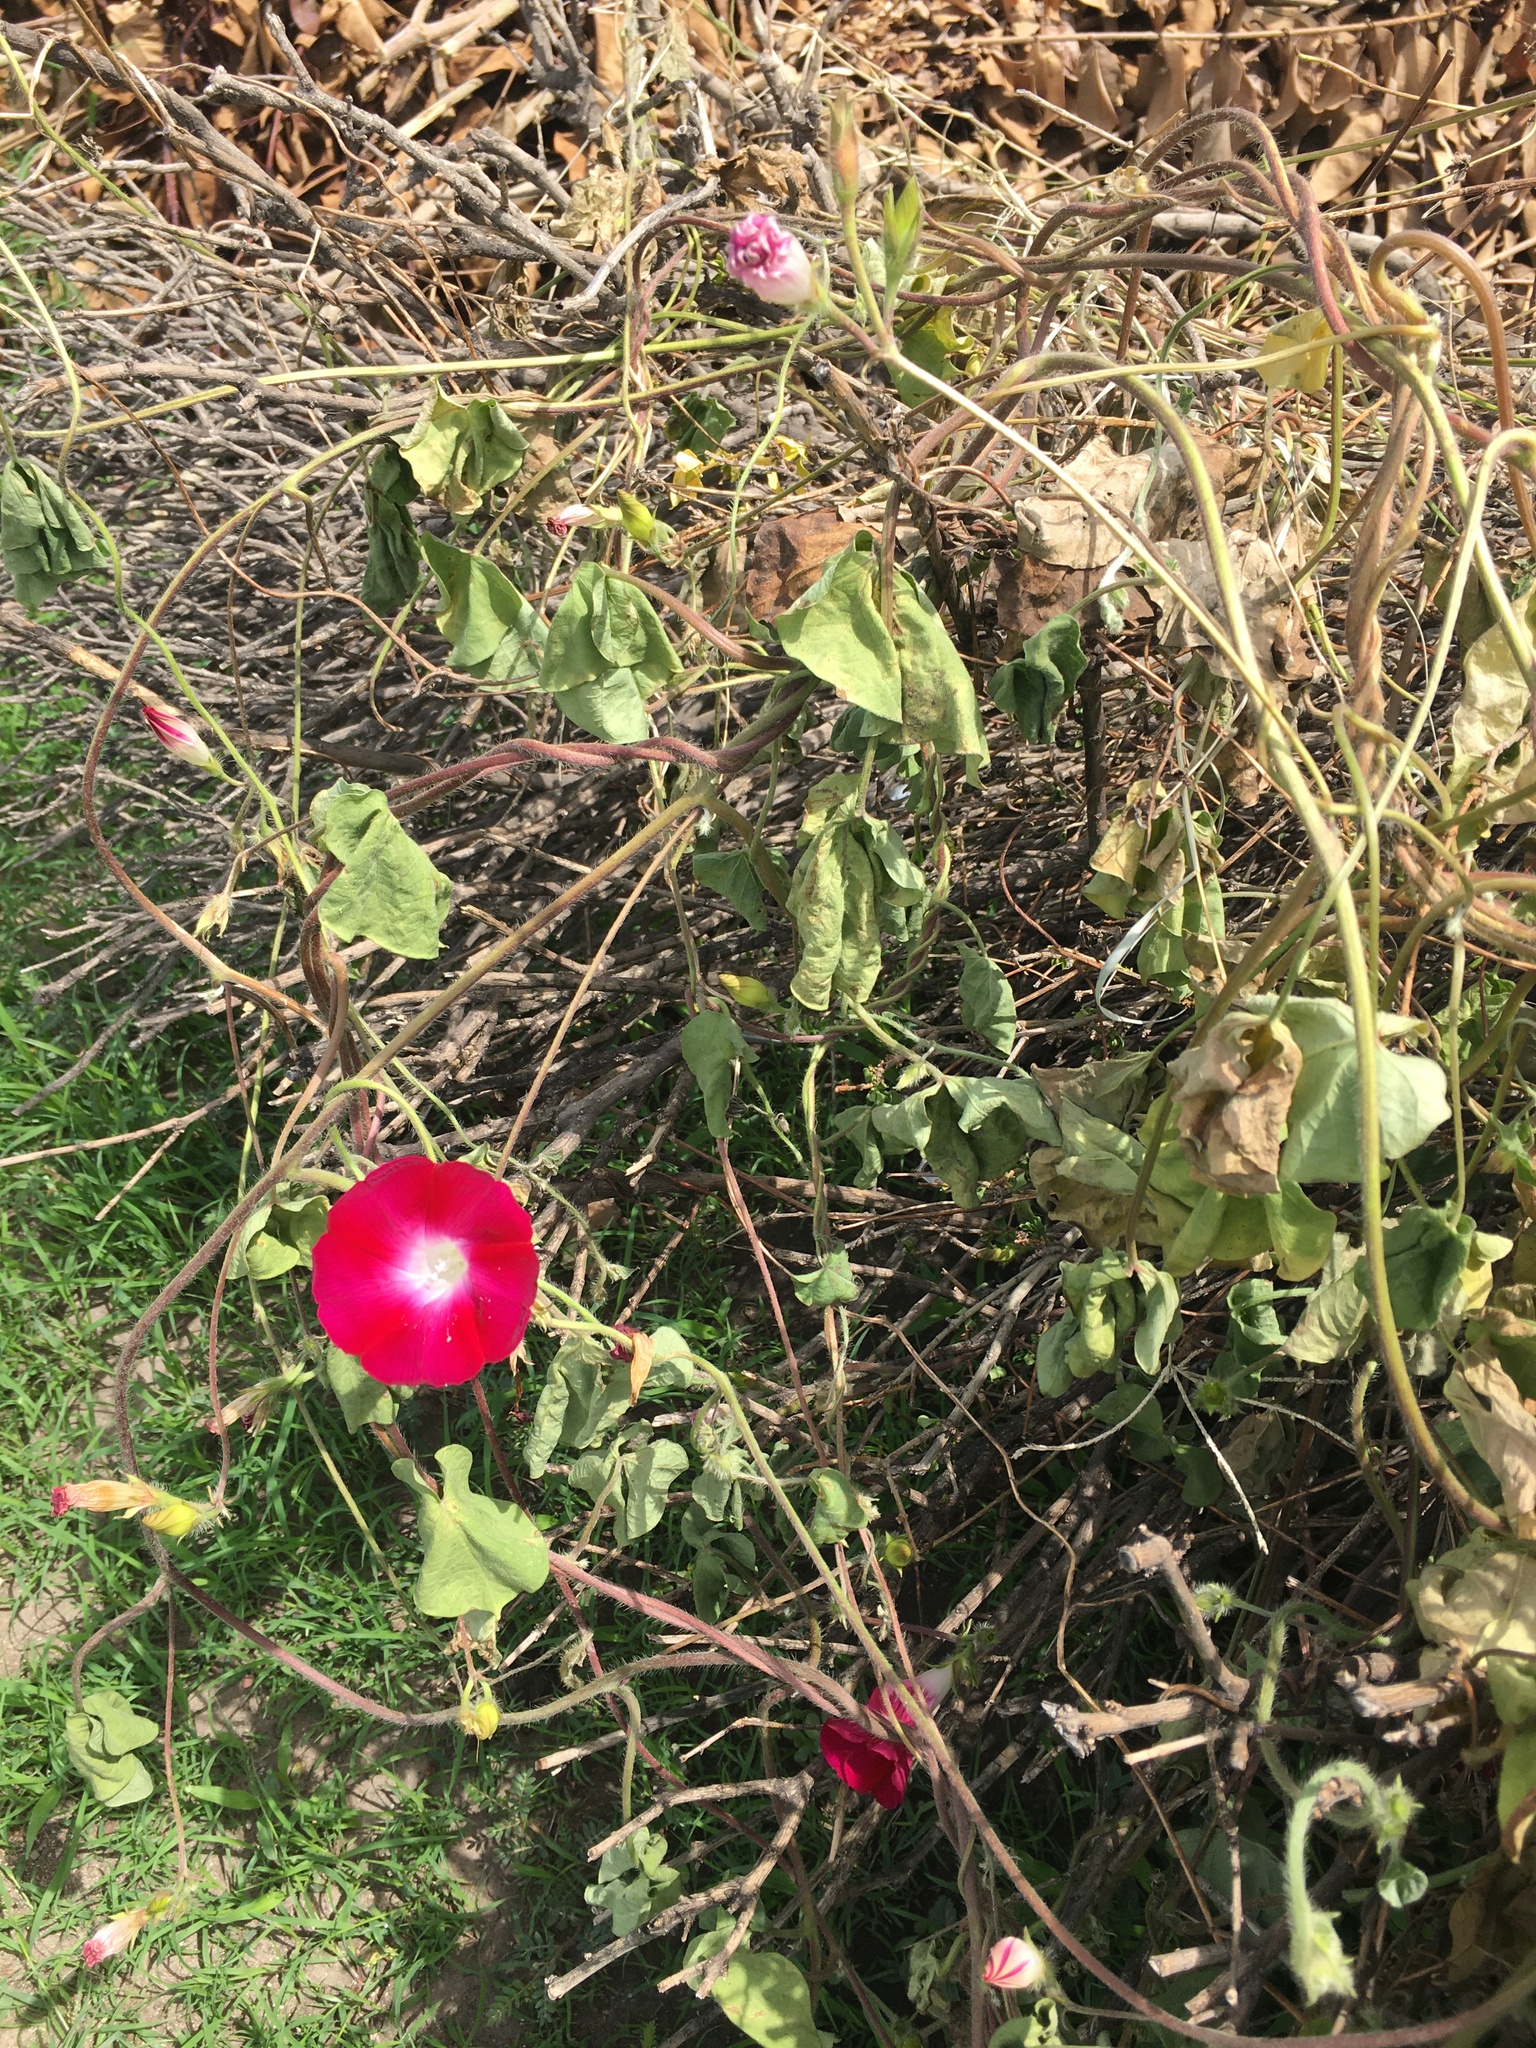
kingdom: Plantae
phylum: Tracheophyta
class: Magnoliopsida
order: Solanales
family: Convolvulaceae
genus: Ipomoea
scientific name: Ipomoea purpurea
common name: Common morning-glory
